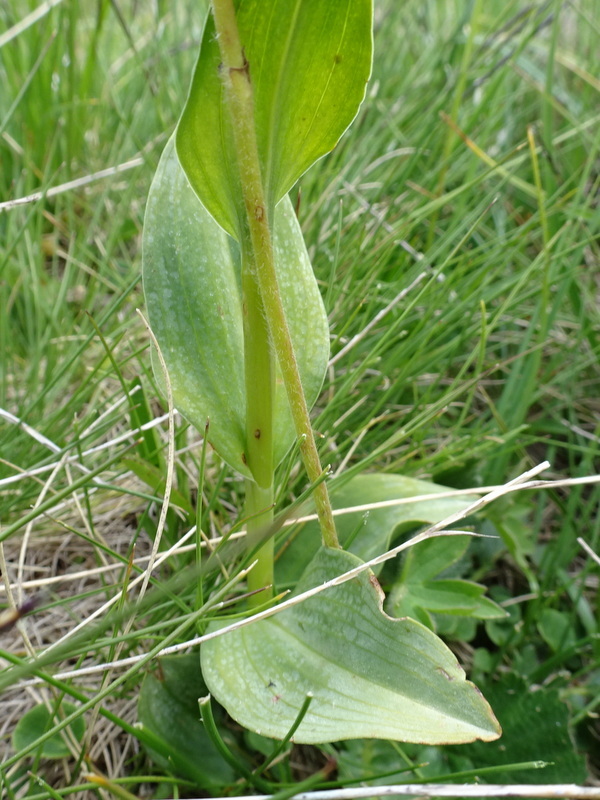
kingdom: Plantae
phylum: Tracheophyta
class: Liliopsida
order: Asparagales
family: Orchidaceae
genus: Dactylorhiza
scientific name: Dactylorhiza viridis
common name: Longbract frog orchid
